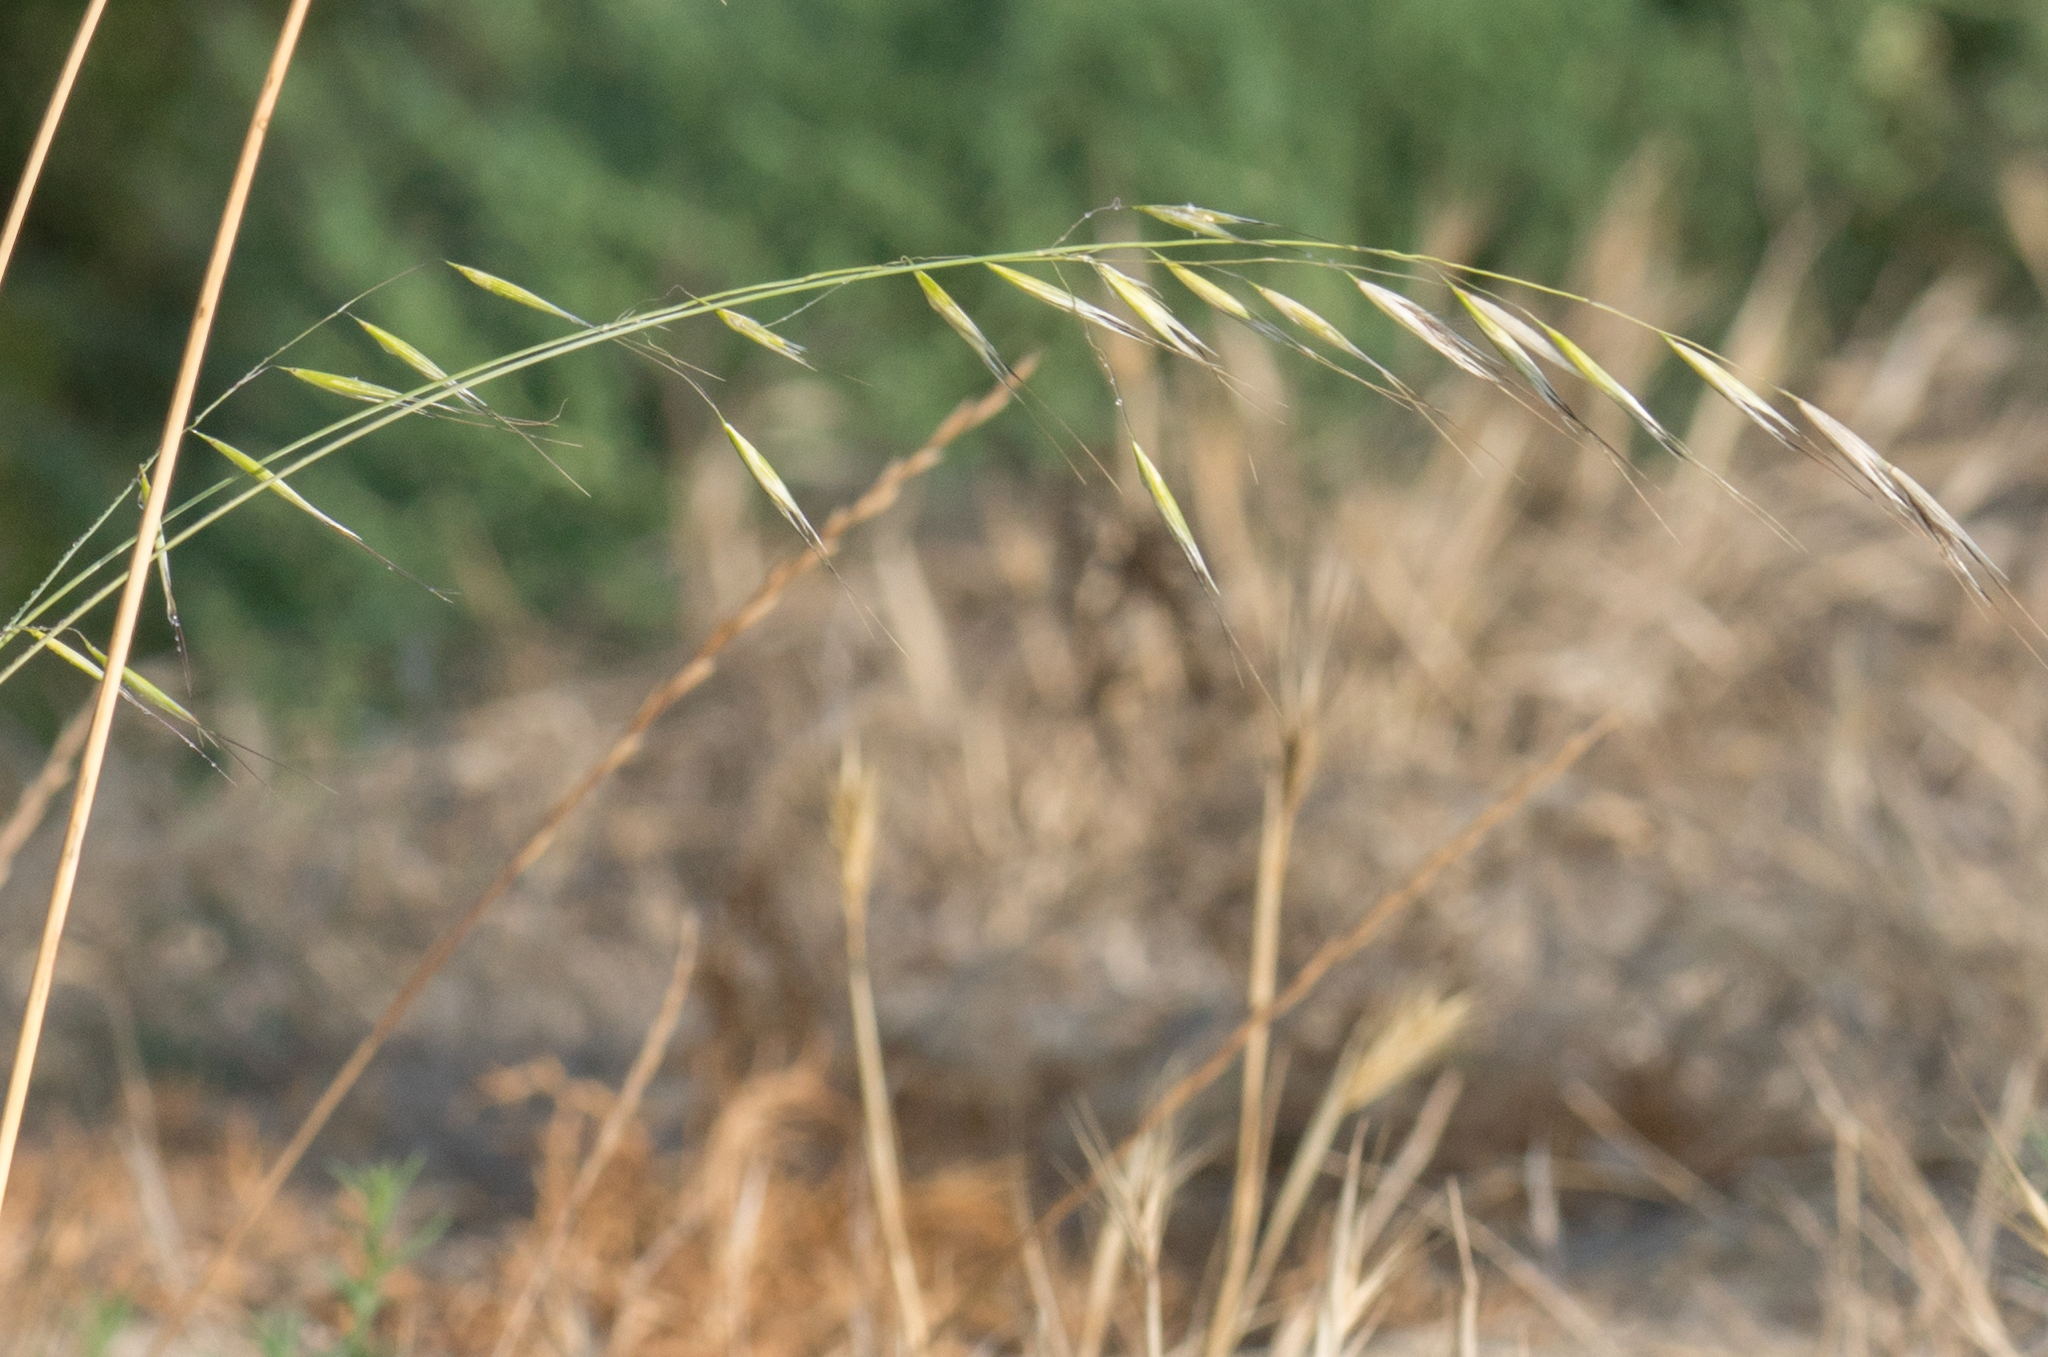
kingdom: Plantae
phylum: Tracheophyta
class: Liliopsida
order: Poales
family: Poaceae
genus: Avena
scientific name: Avena barbata
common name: Slender oat
